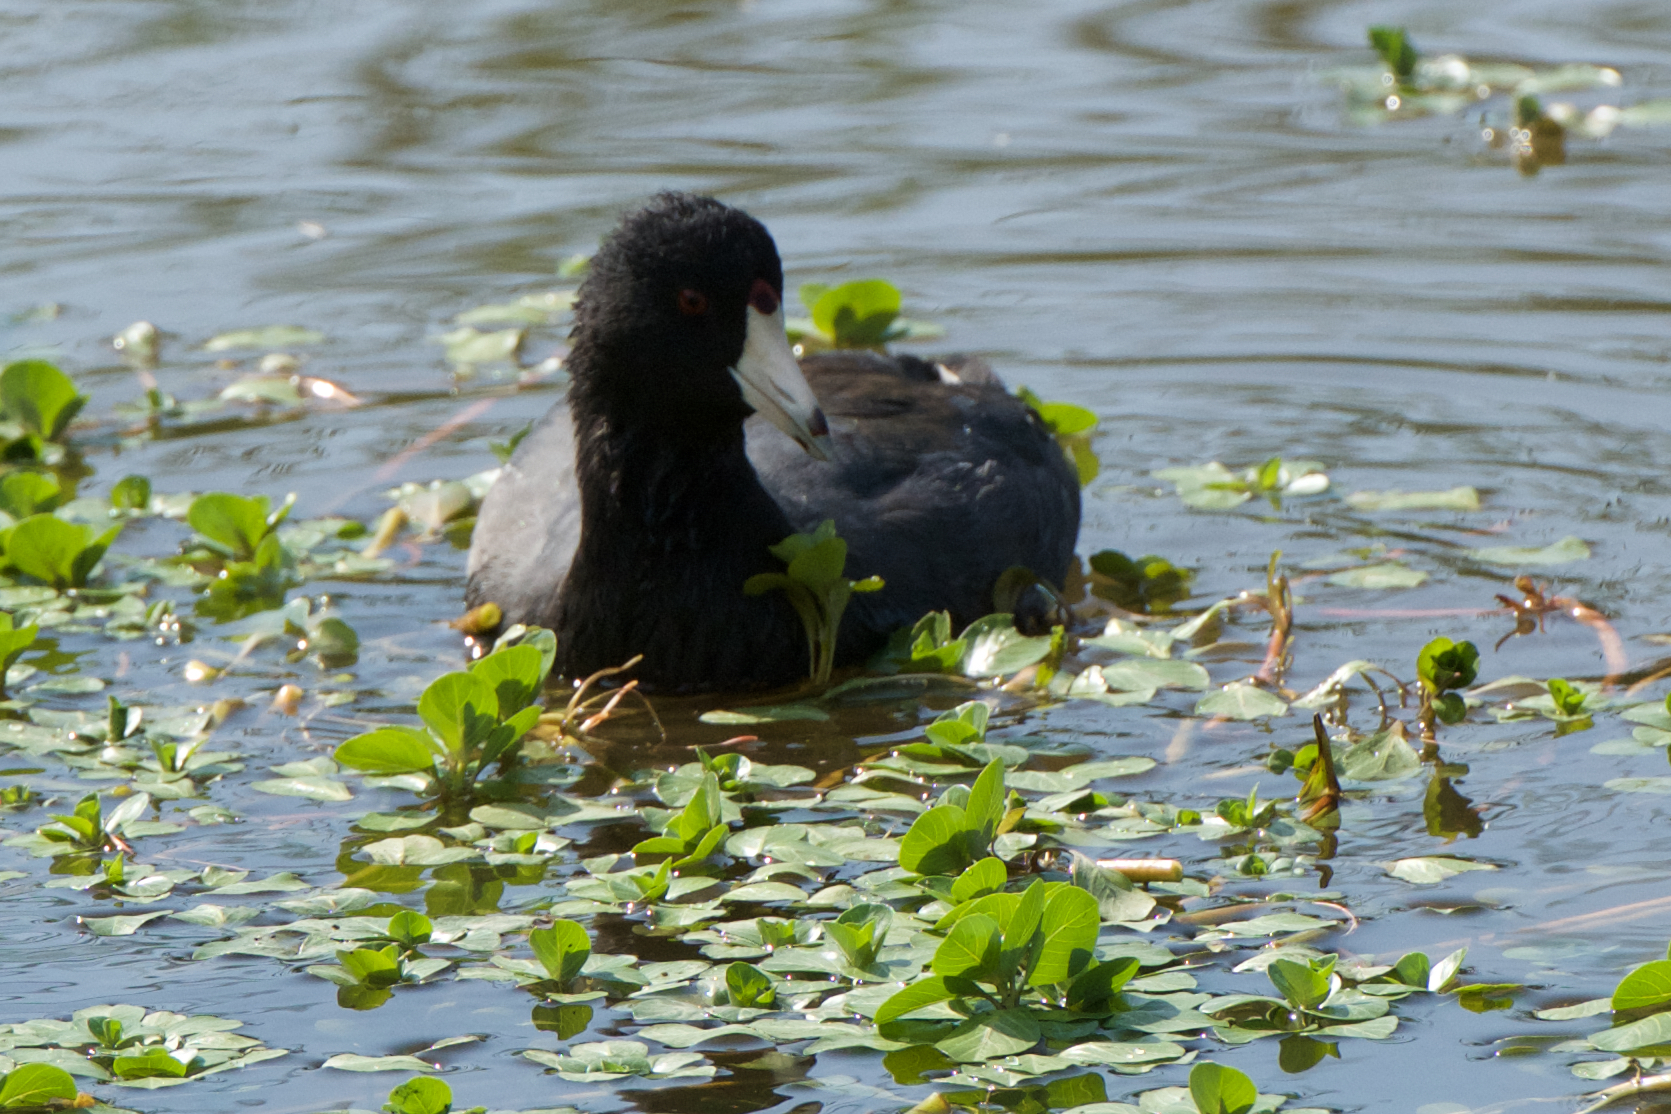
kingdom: Animalia
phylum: Chordata
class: Aves
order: Gruiformes
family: Rallidae
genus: Fulica
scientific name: Fulica americana
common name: American coot
